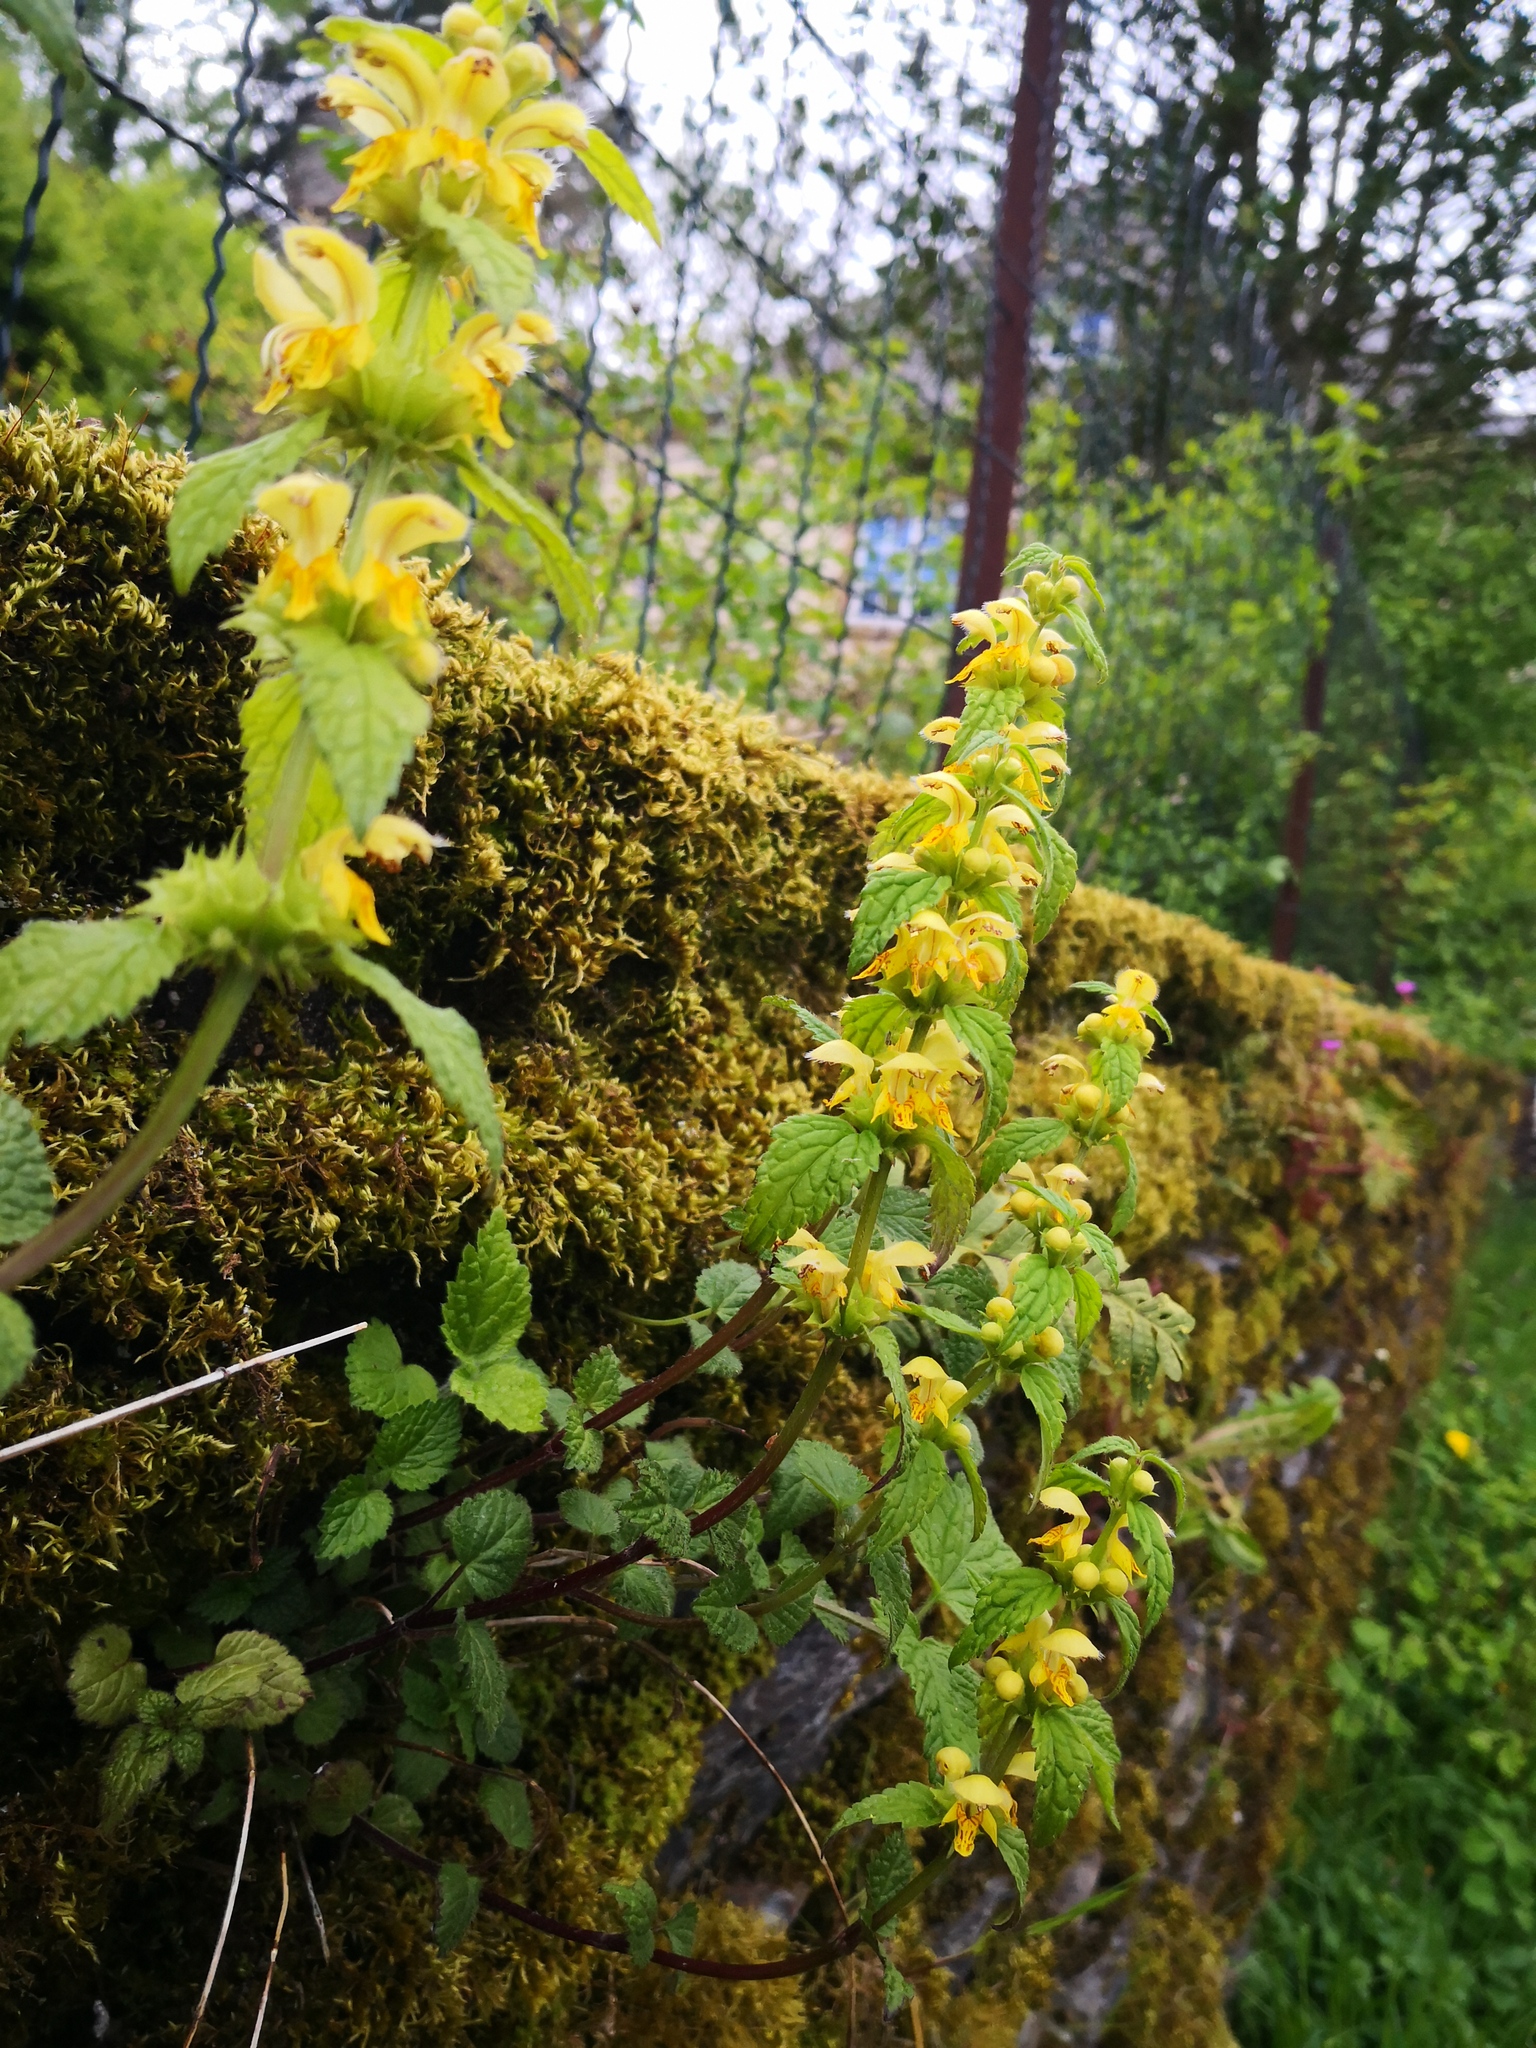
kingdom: Plantae
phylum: Tracheophyta
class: Magnoliopsida
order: Lamiales
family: Lamiaceae
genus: Lamium
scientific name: Lamium galeobdolon
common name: Yellow archangel
